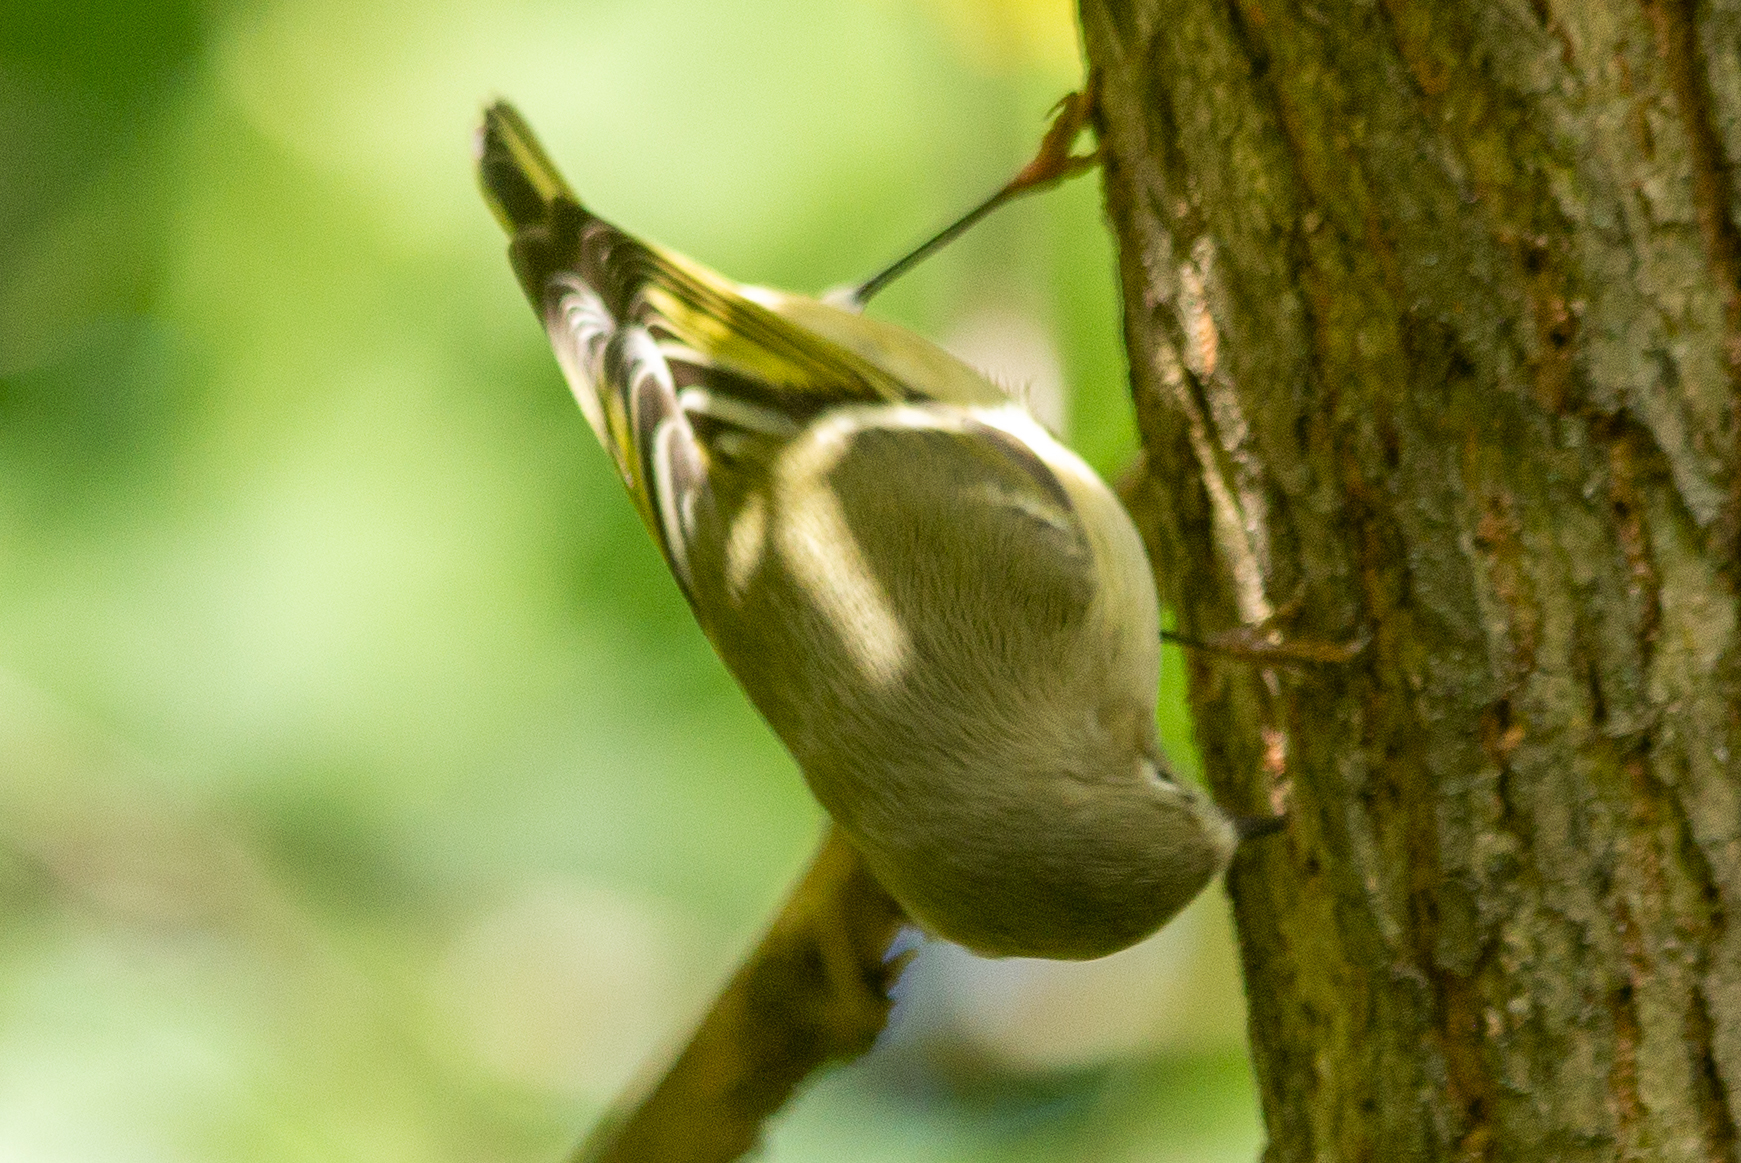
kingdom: Animalia
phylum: Chordata
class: Aves
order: Passeriformes
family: Regulidae
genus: Regulus
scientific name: Regulus calendula
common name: Ruby-crowned kinglet
